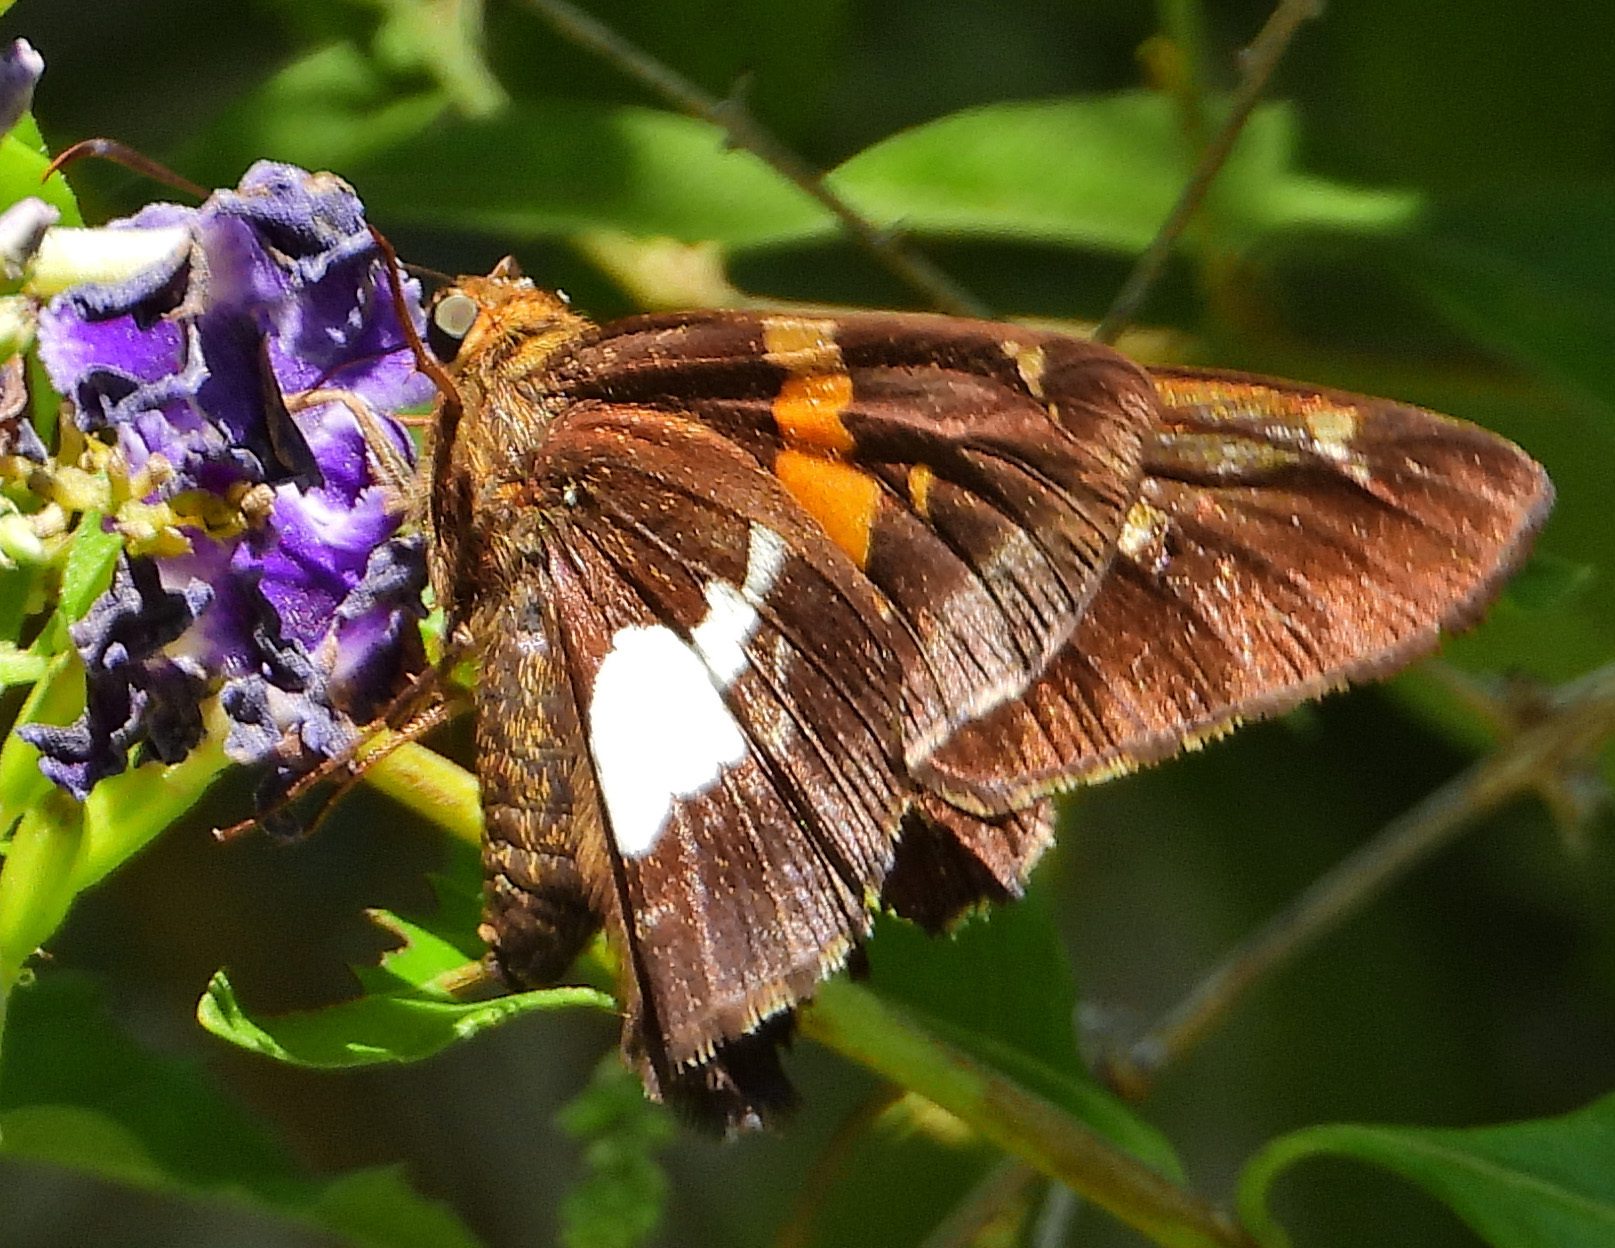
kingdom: Animalia
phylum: Arthropoda
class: Insecta
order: Lepidoptera
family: Hesperiidae
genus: Epargyreus
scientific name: Epargyreus clarus
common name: Silver-spotted skipper
